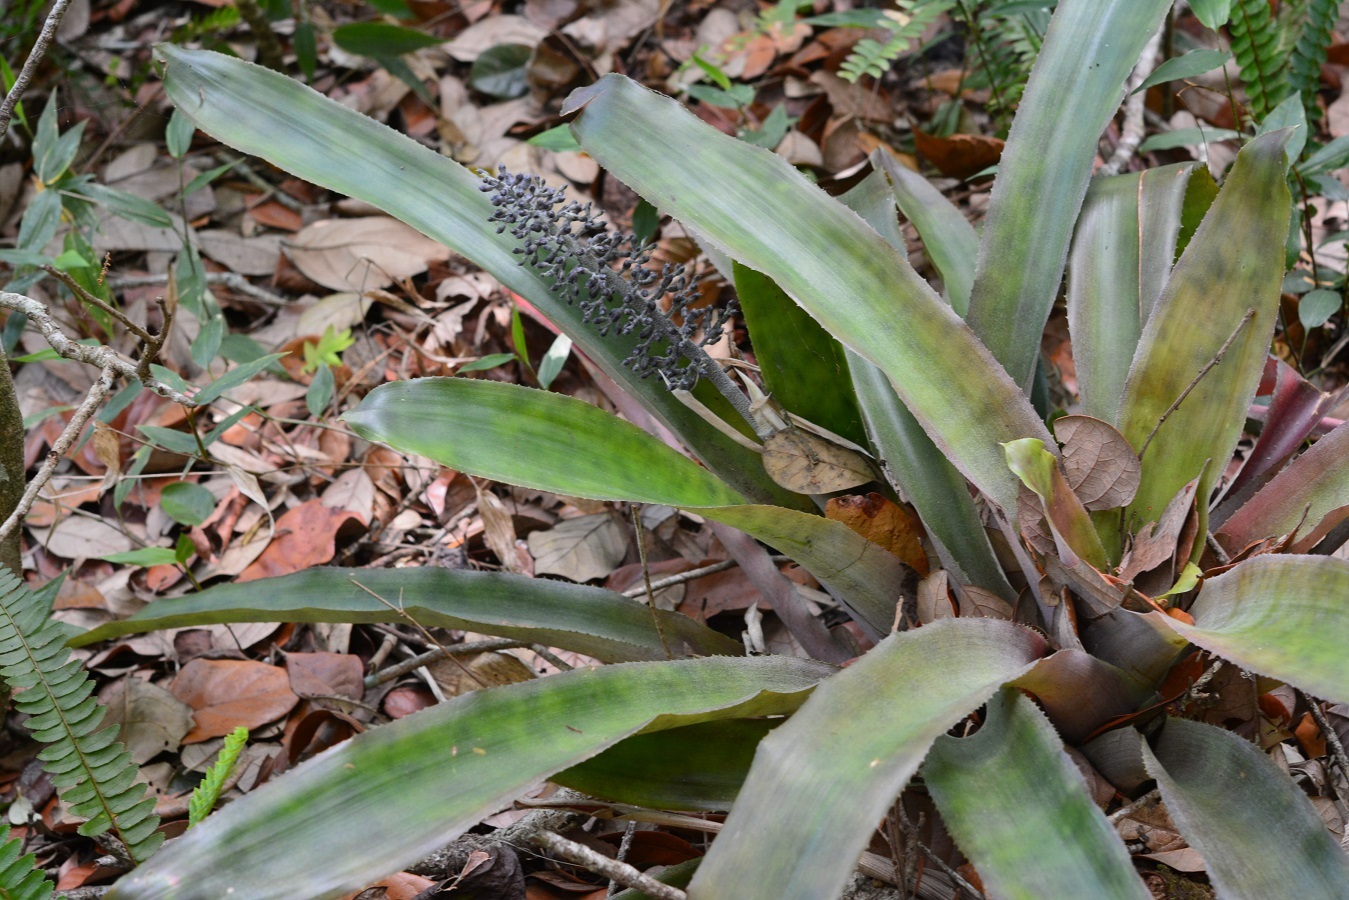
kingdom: Plantae
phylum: Tracheophyta
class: Liliopsida
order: Poales
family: Bromeliaceae
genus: Aechmea
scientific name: Aechmea lueddemanniana
